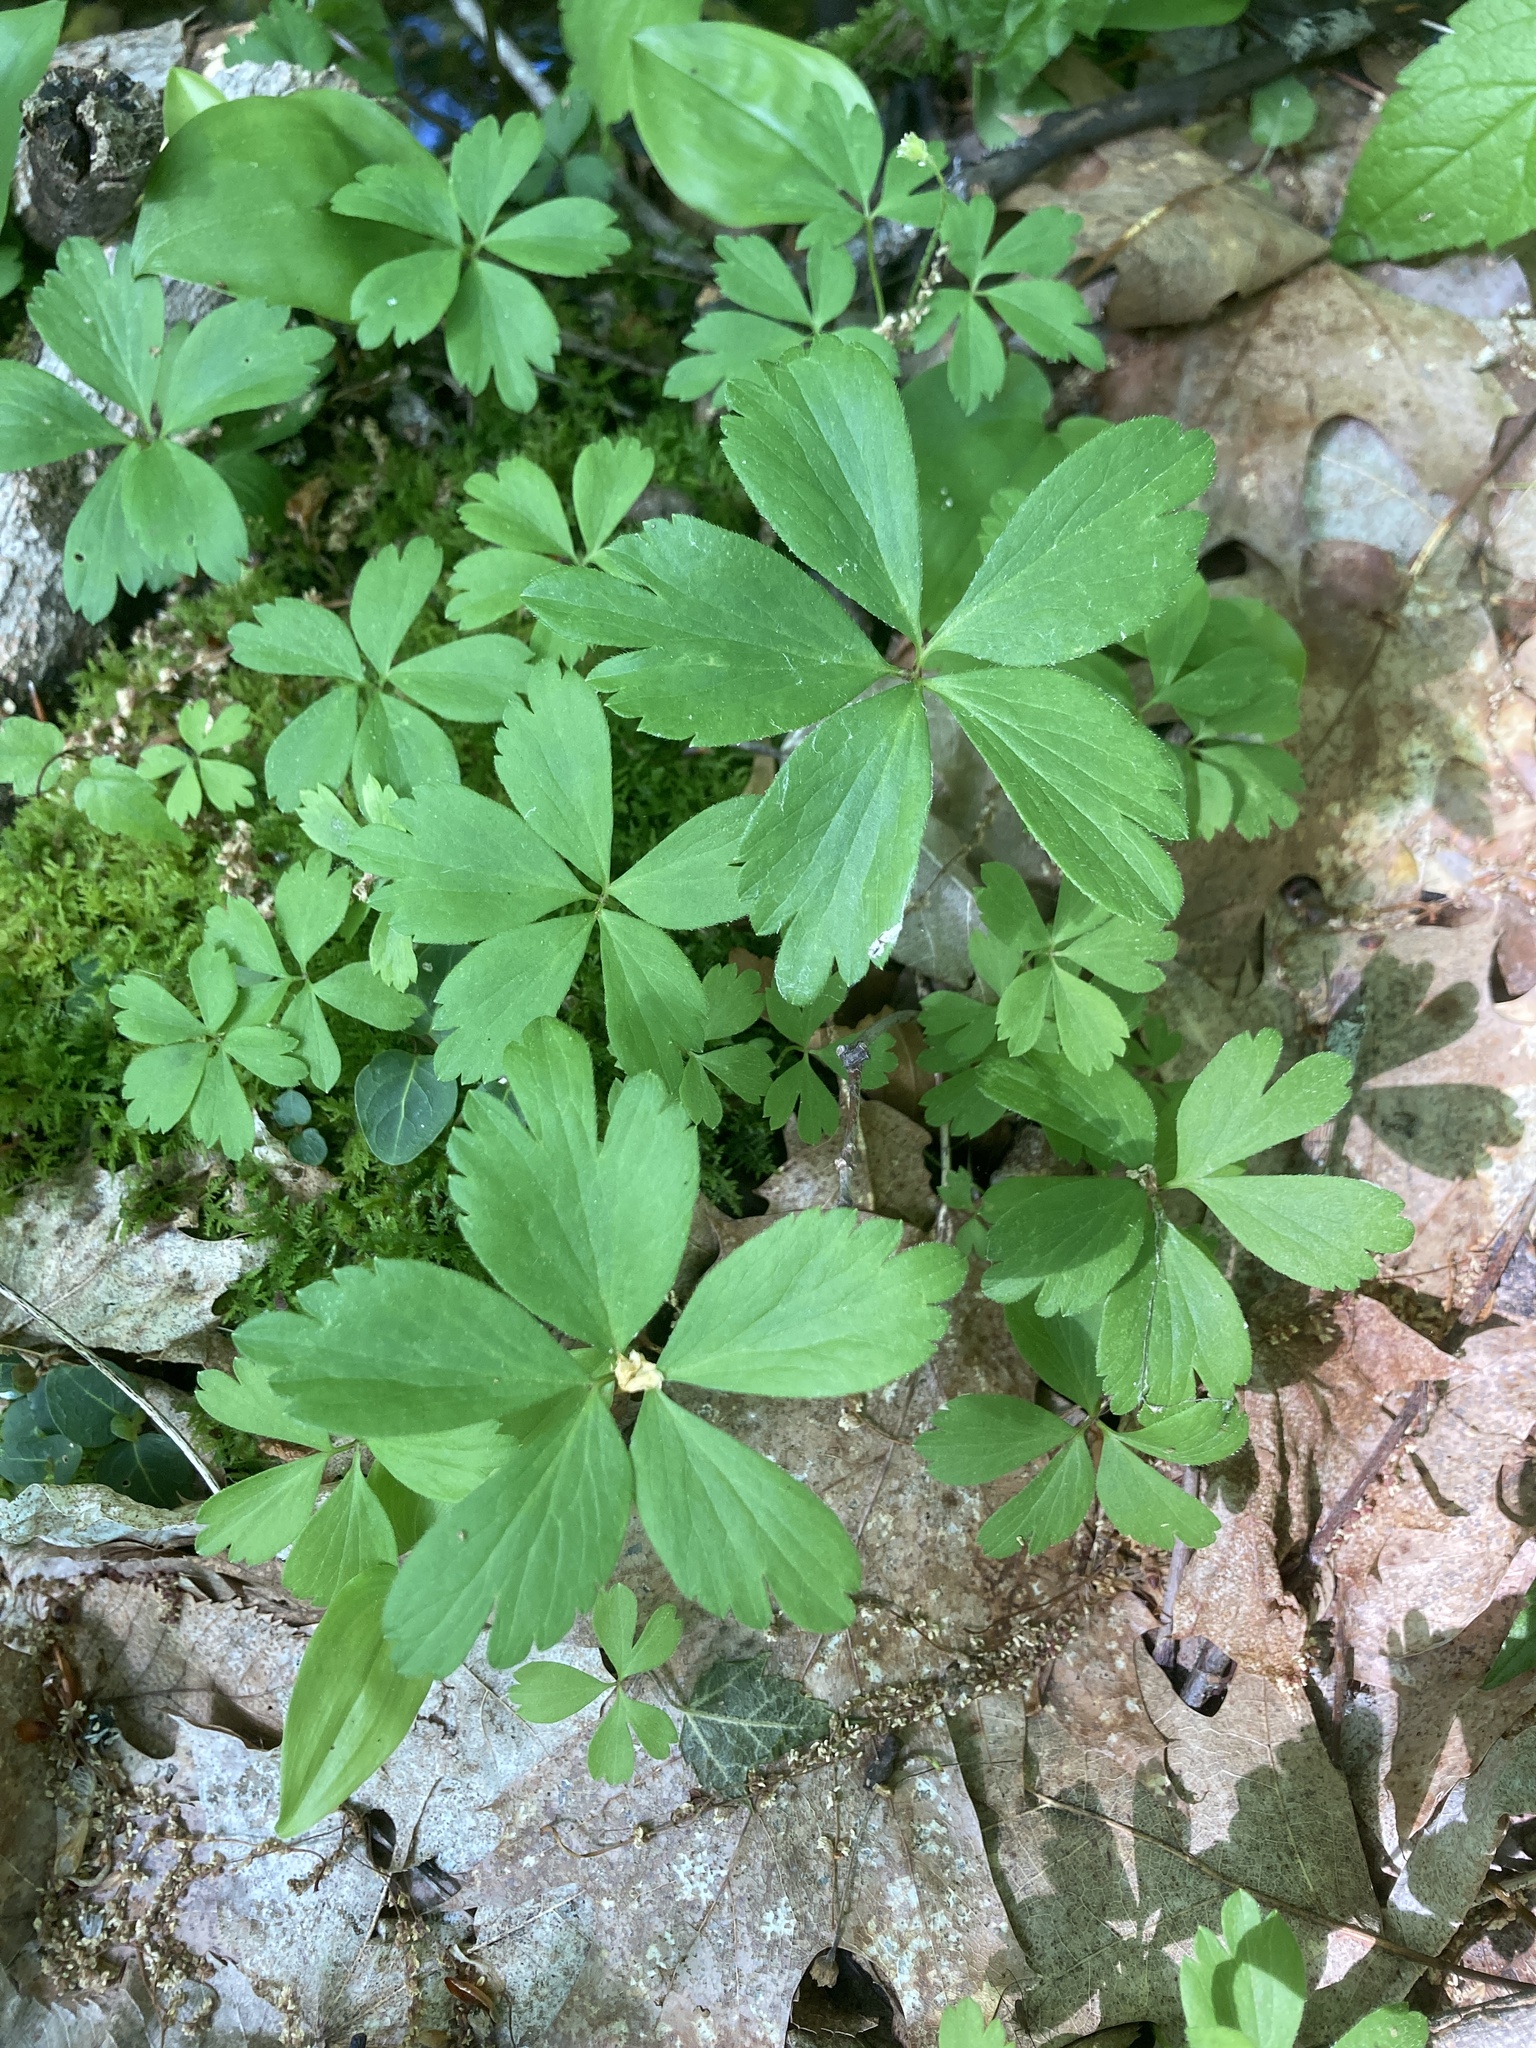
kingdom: Plantae
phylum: Tracheophyta
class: Magnoliopsida
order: Ranunculales
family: Ranunculaceae
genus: Anemone
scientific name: Anemone quinquefolia
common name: Wood anemone
